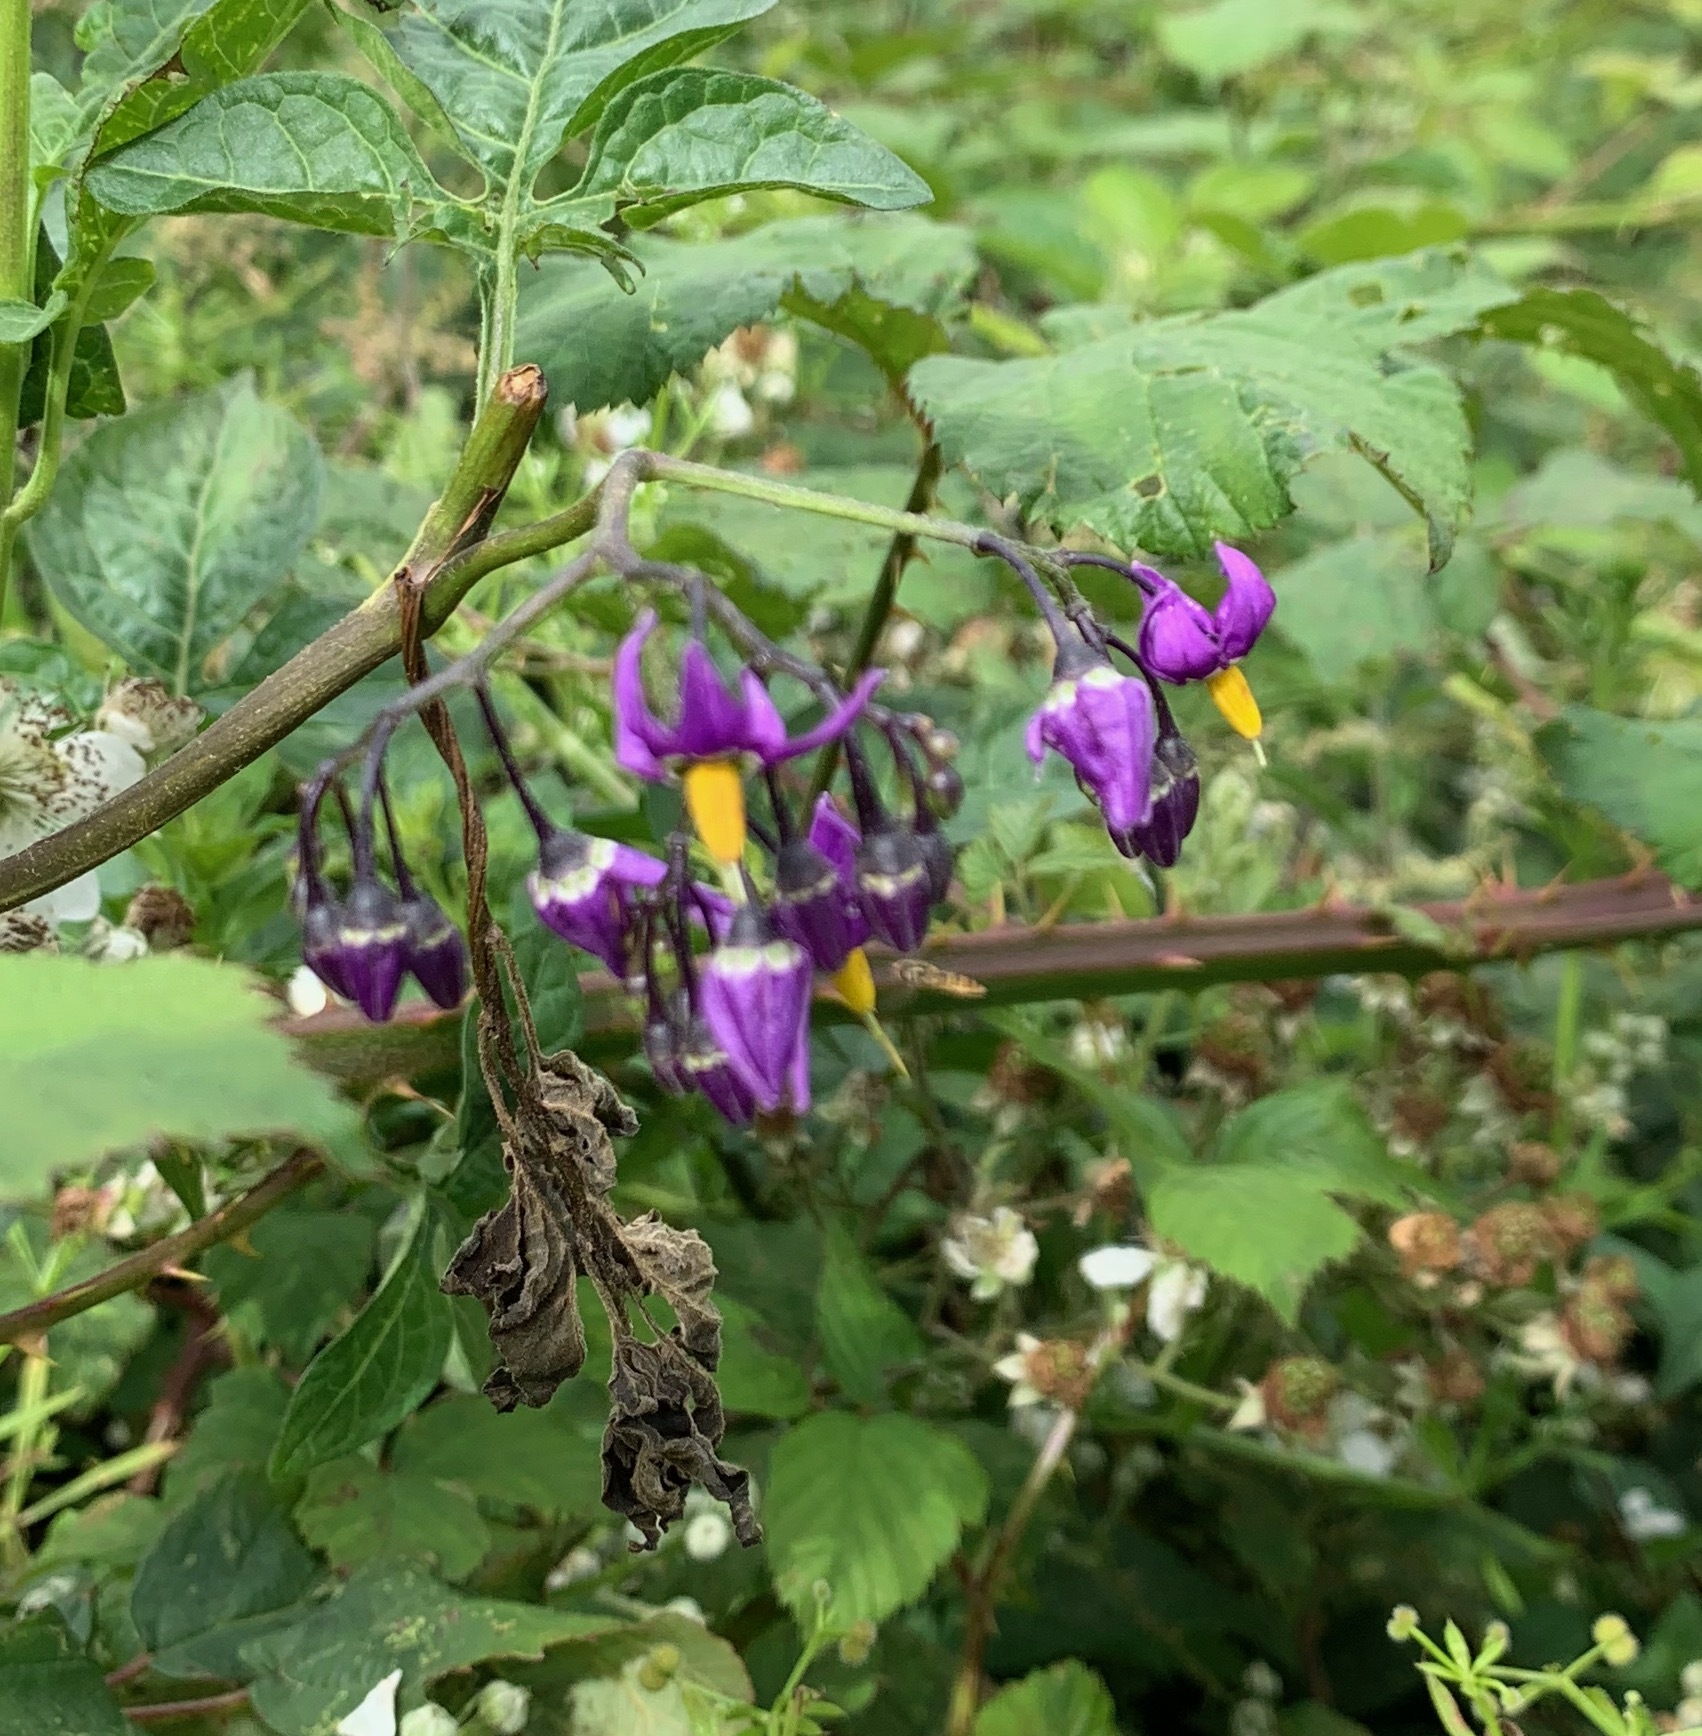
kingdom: Plantae
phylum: Tracheophyta
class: Magnoliopsida
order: Solanales
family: Solanaceae
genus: Solanum
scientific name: Solanum dulcamara
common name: Climbing nightshade
